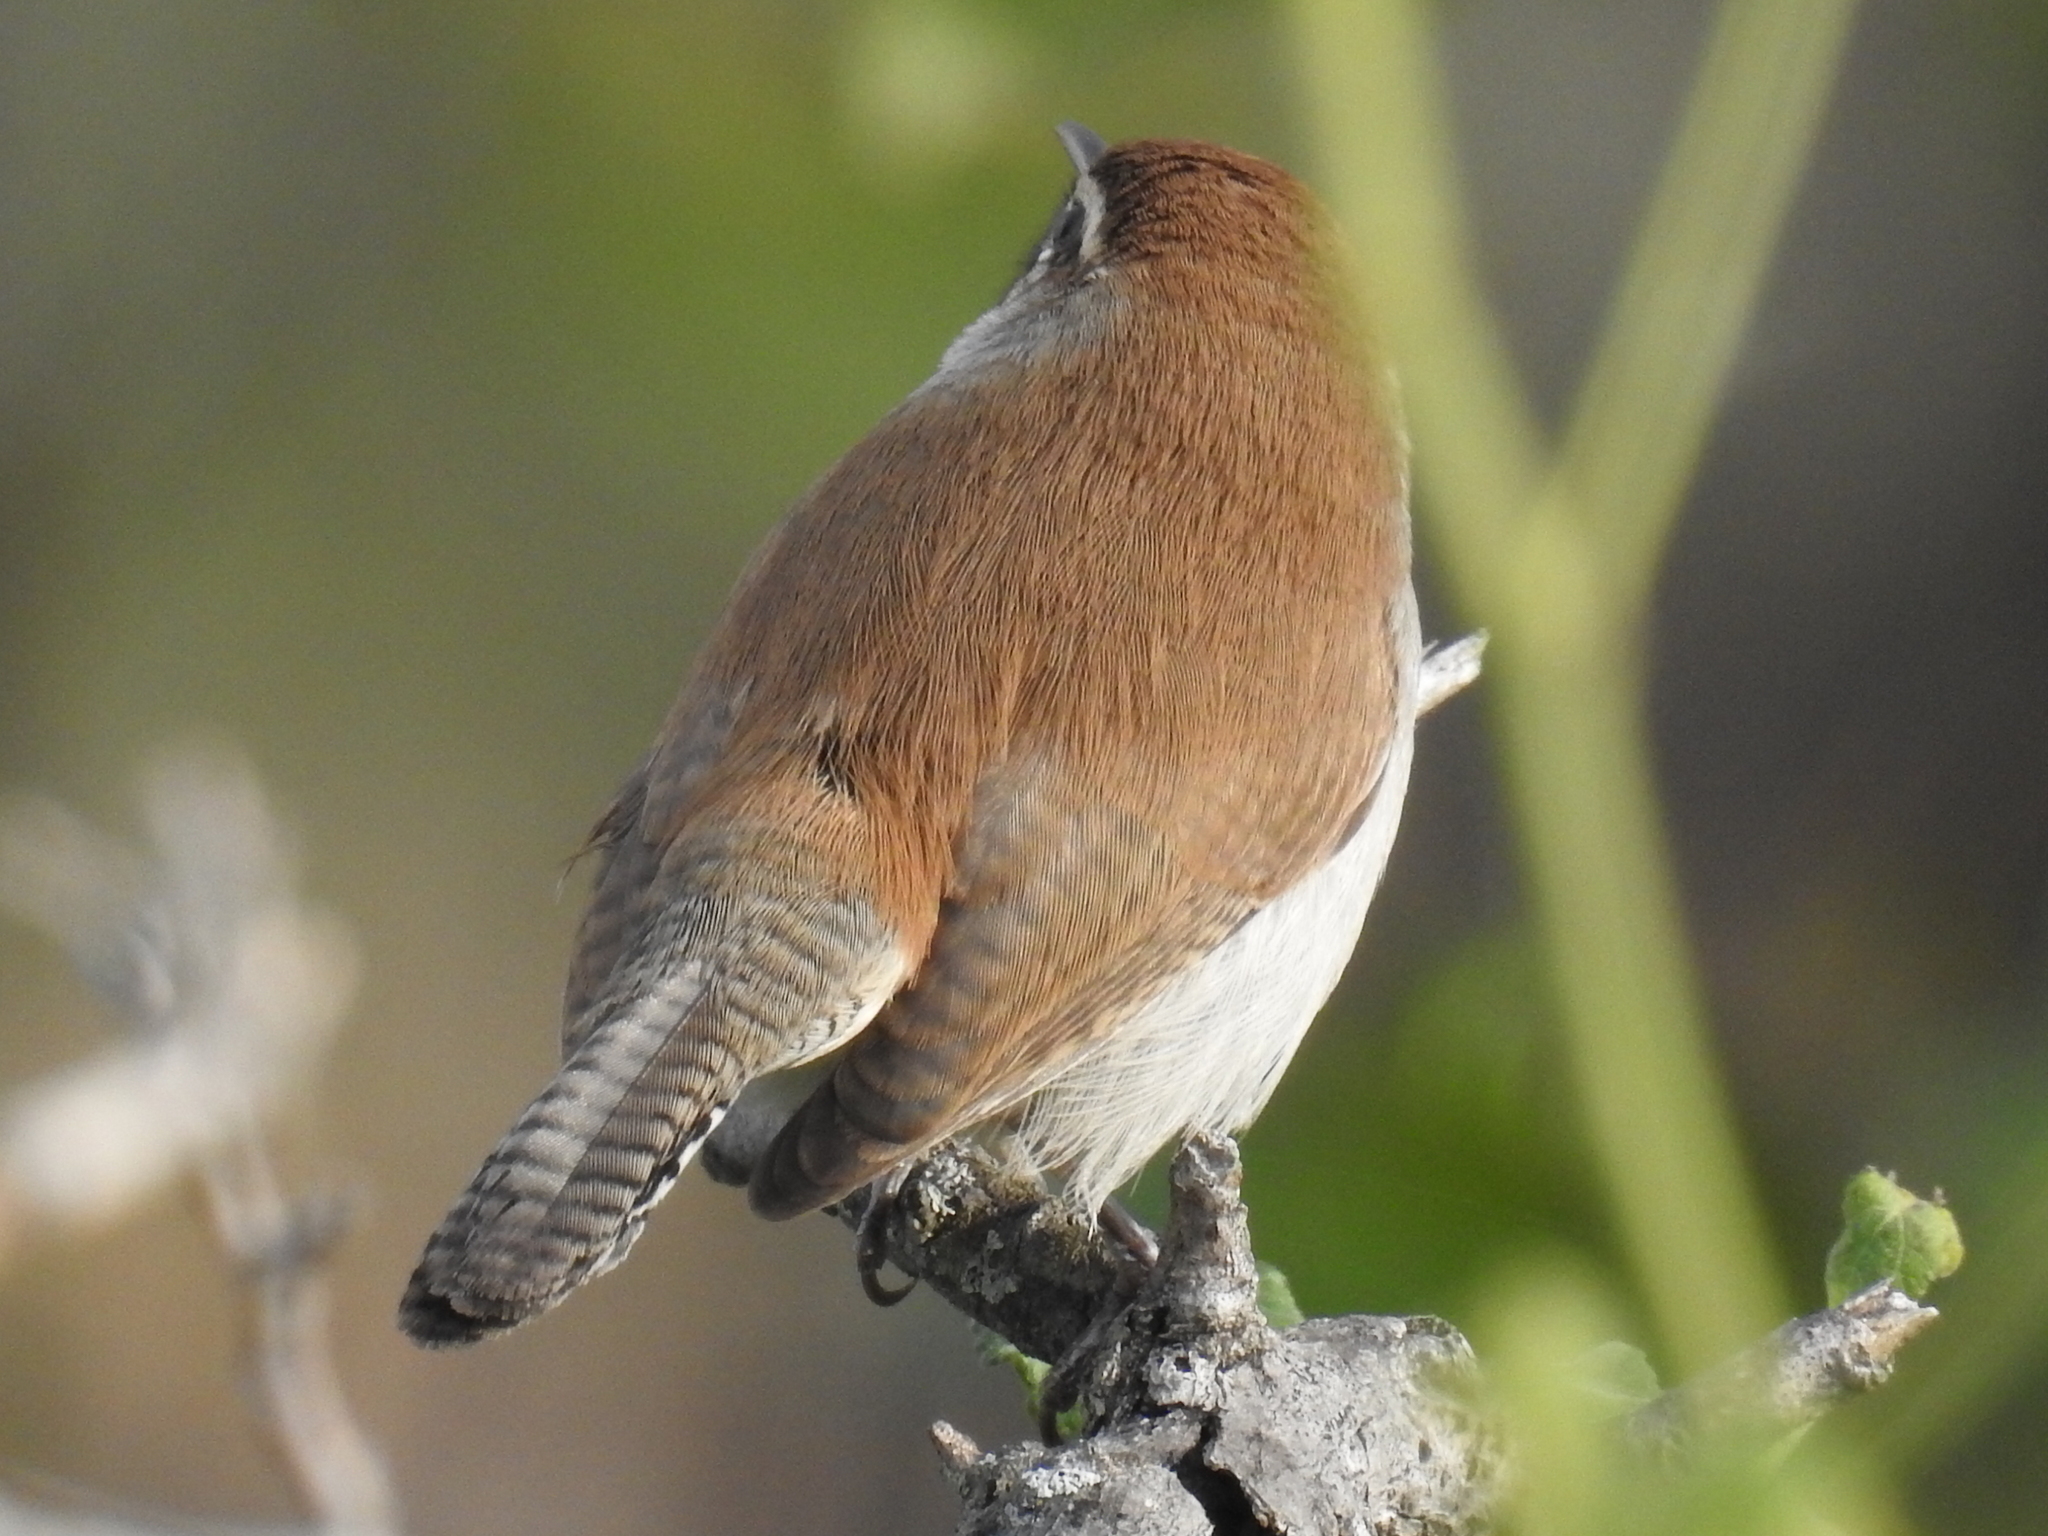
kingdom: Animalia
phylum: Chordata
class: Aves
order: Passeriformes
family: Troglodytidae
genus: Thryomanes
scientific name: Thryomanes bewickii
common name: Bewick's wren
